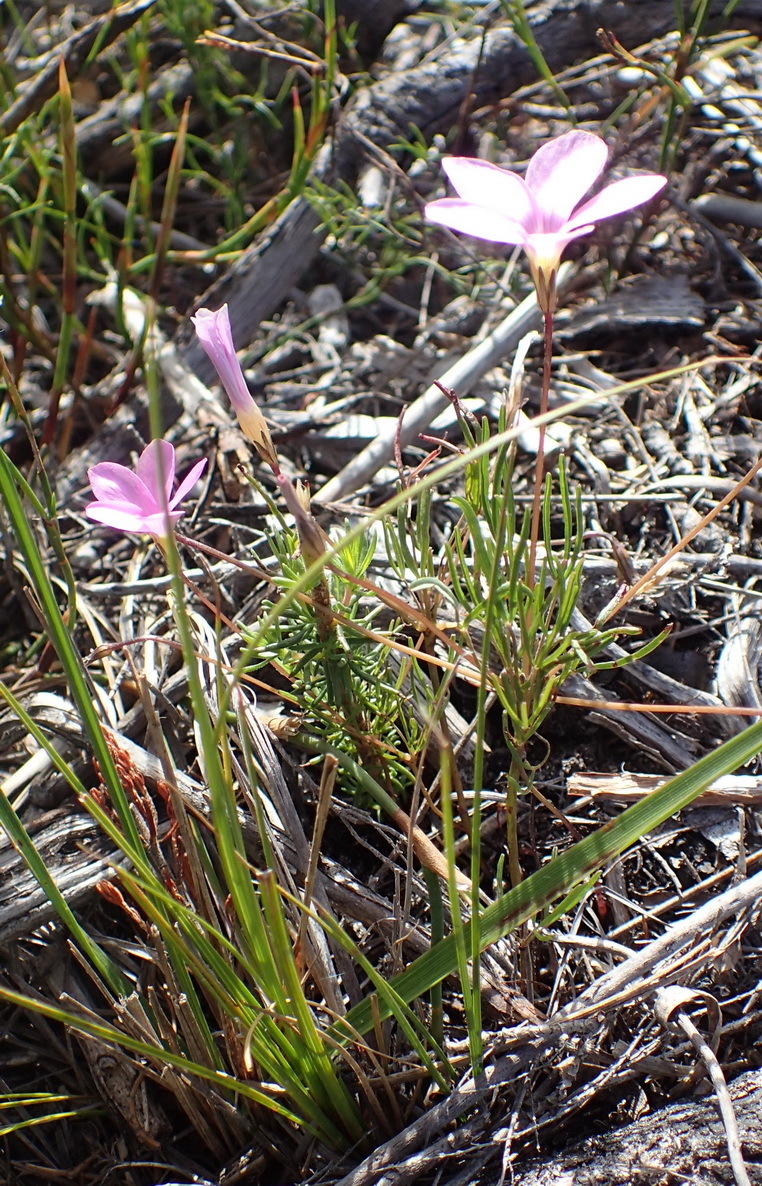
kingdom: Plantae
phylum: Tracheophyta
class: Magnoliopsida
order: Oxalidales
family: Oxalidaceae
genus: Oxalis
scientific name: Oxalis polyphylla
